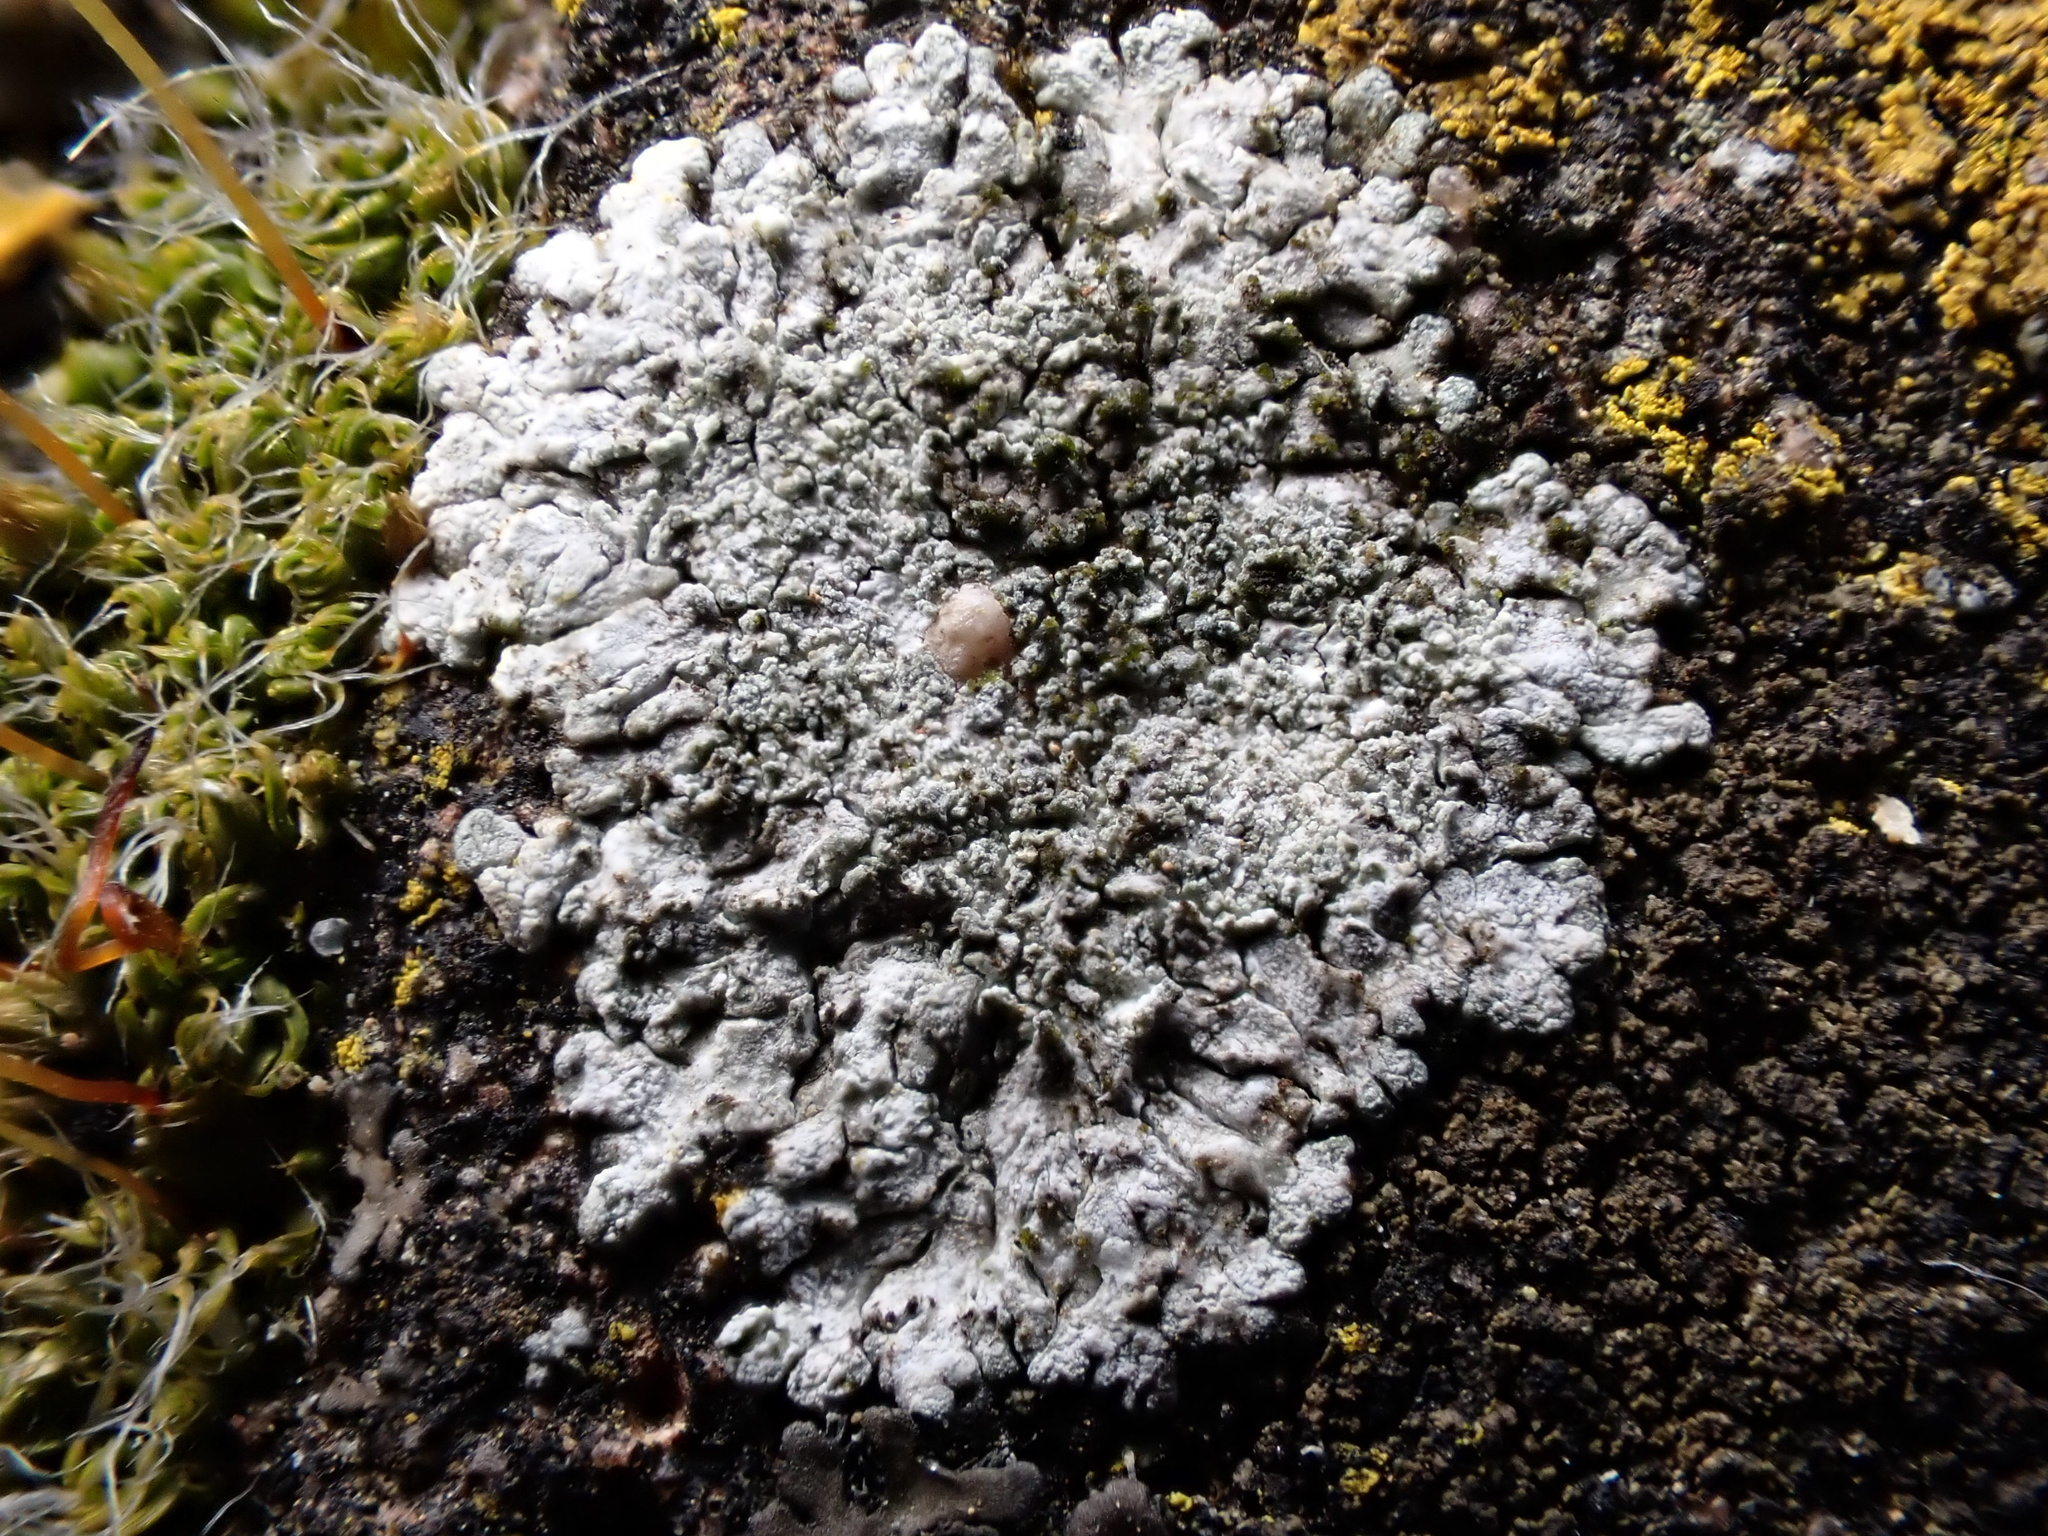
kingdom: Fungi
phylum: Ascomycota
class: Lecanoromycetes
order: Teloschistales
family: Teloschistaceae
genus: Kuettlingeria
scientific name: Kuettlingeria teicholyta
